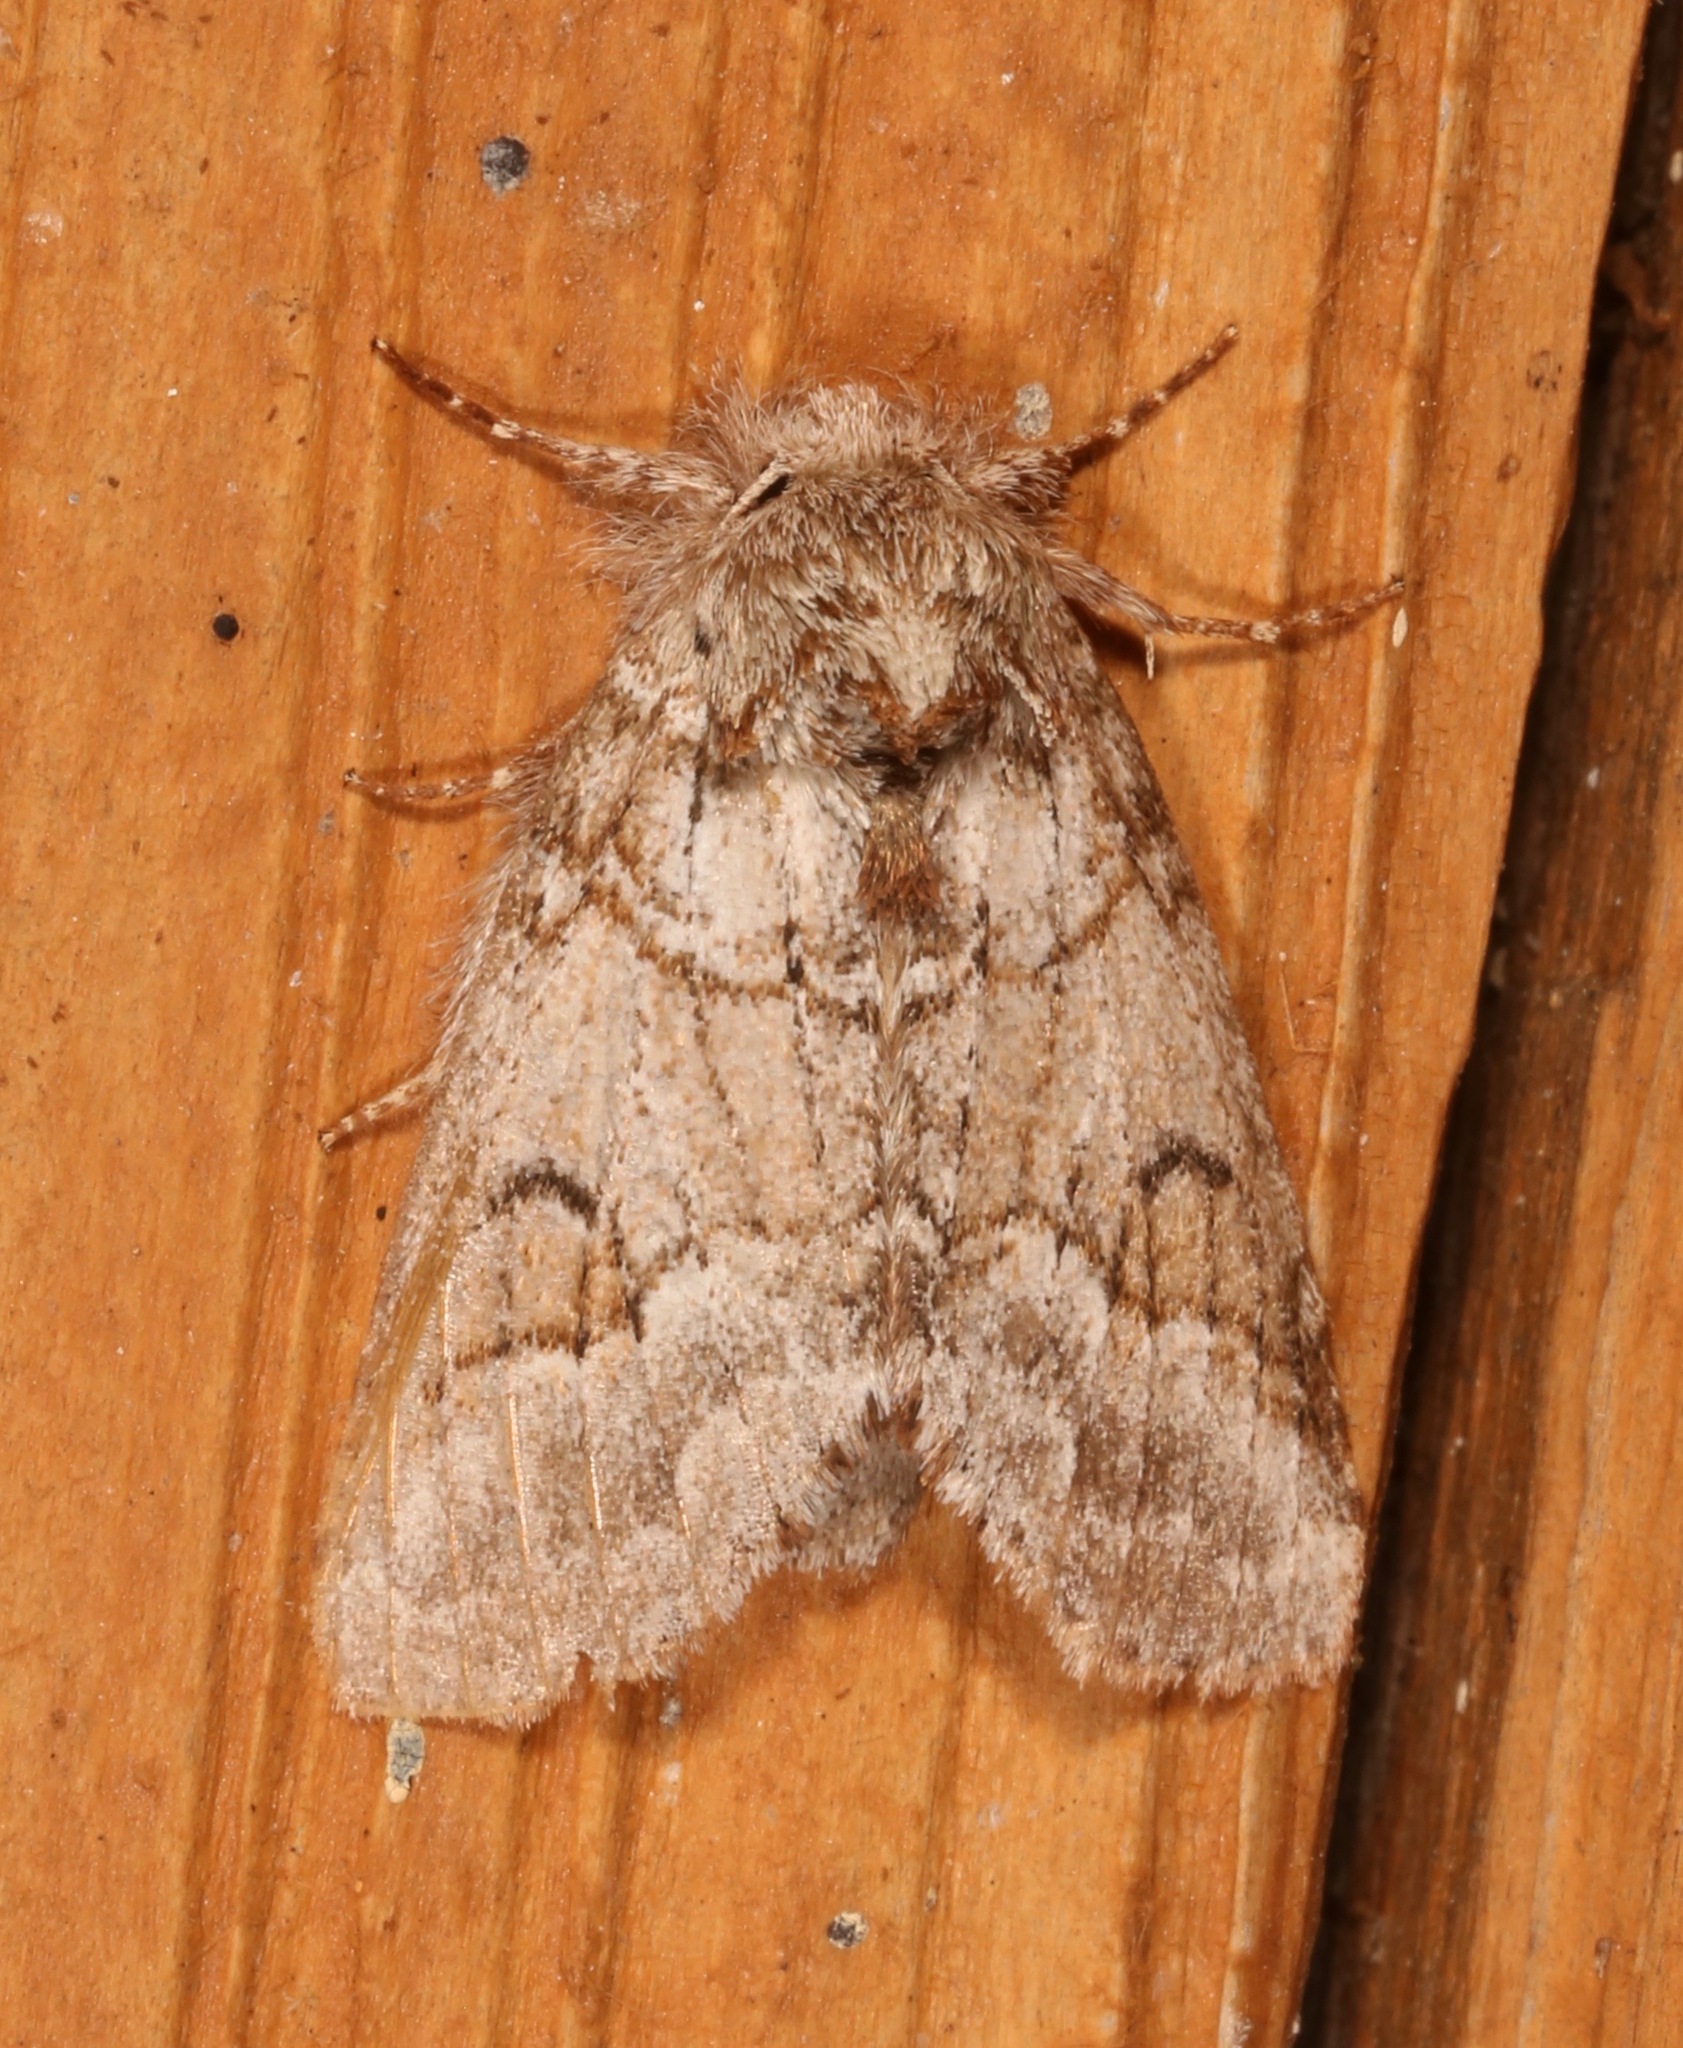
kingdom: Animalia
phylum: Arthropoda
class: Insecta
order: Lepidoptera
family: Notodontidae
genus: Lochmaeus
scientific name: Lochmaeus bilineata
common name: Double-lined prominent
